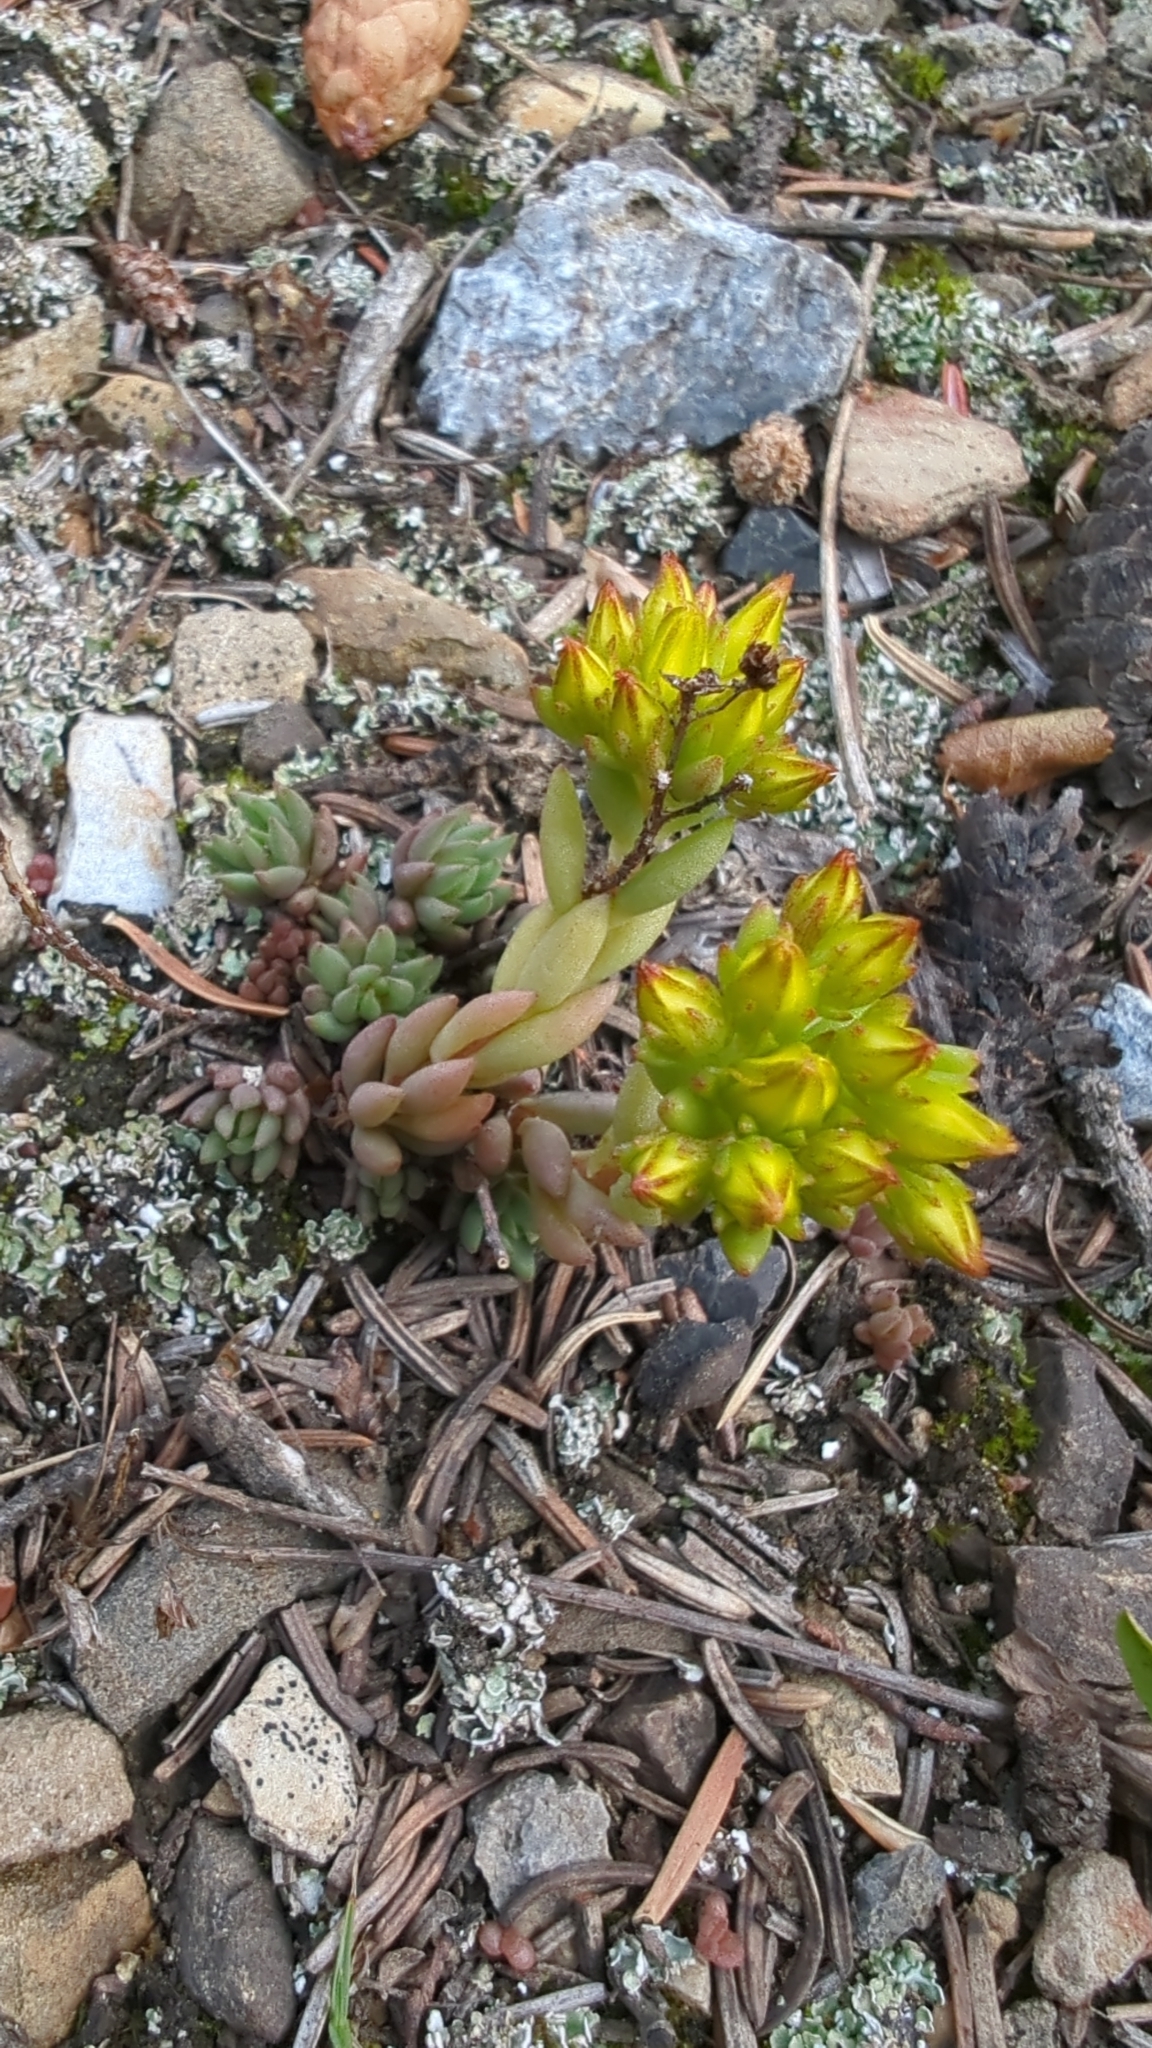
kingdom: Plantae
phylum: Tracheophyta
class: Magnoliopsida
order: Saxifragales
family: Crassulaceae
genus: Sedum
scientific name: Sedum lanceolatum
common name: Common stonecrop
